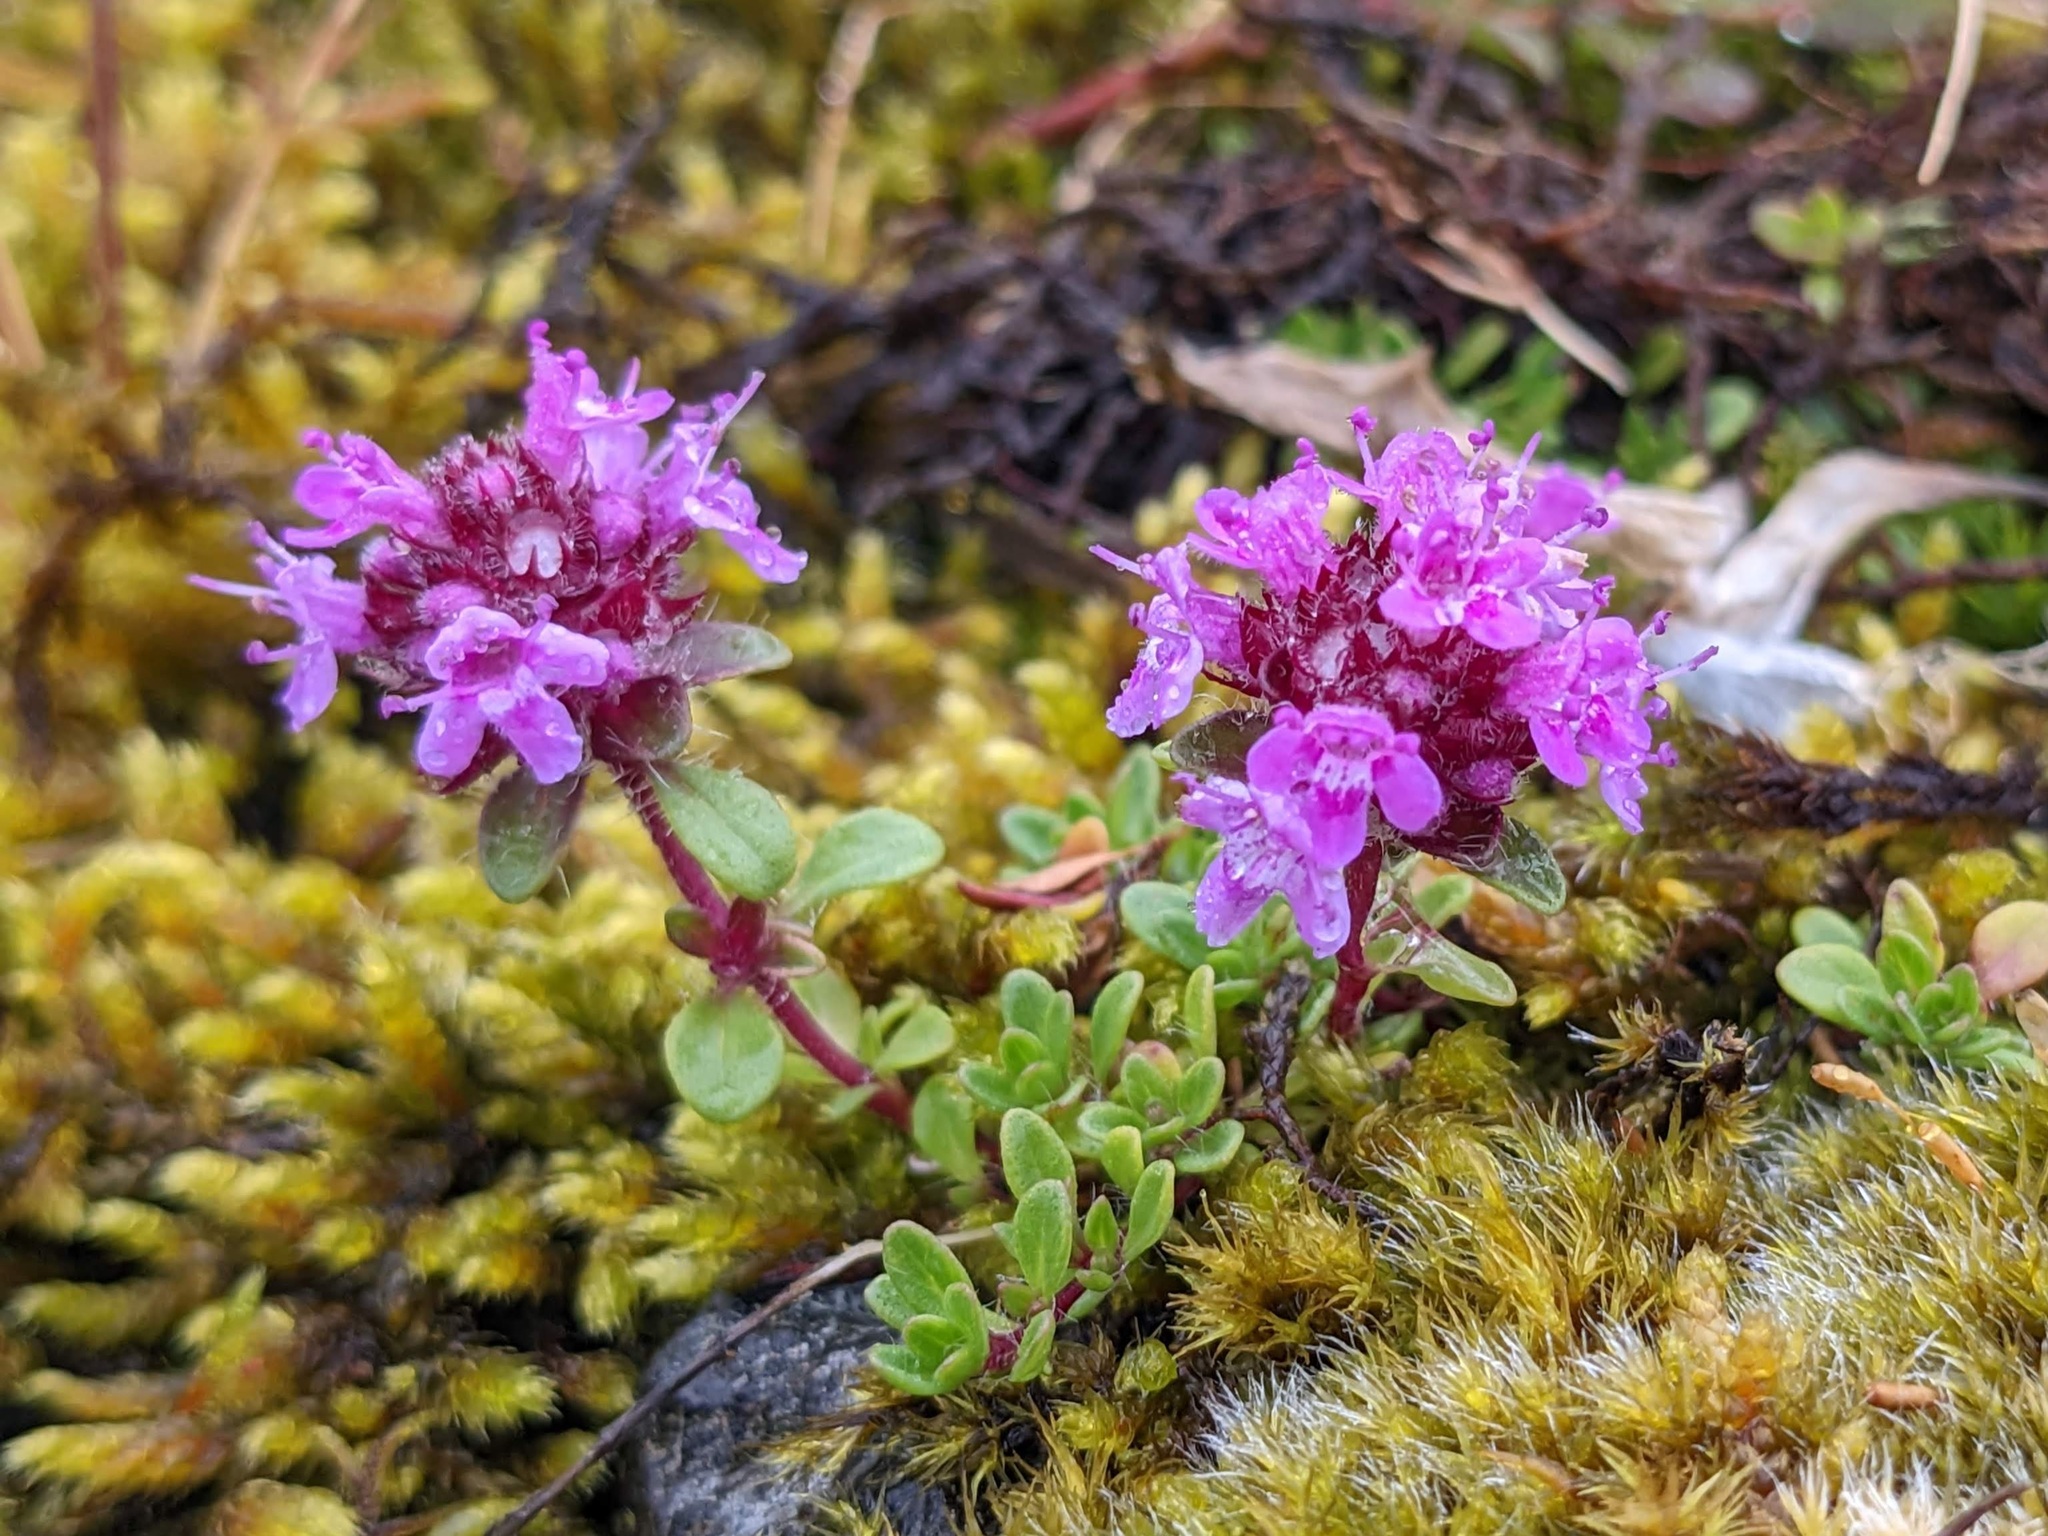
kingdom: Plantae
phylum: Tracheophyta
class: Magnoliopsida
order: Lamiales
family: Lamiaceae
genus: Thymus
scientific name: Thymus praecox
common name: Wild thyme
